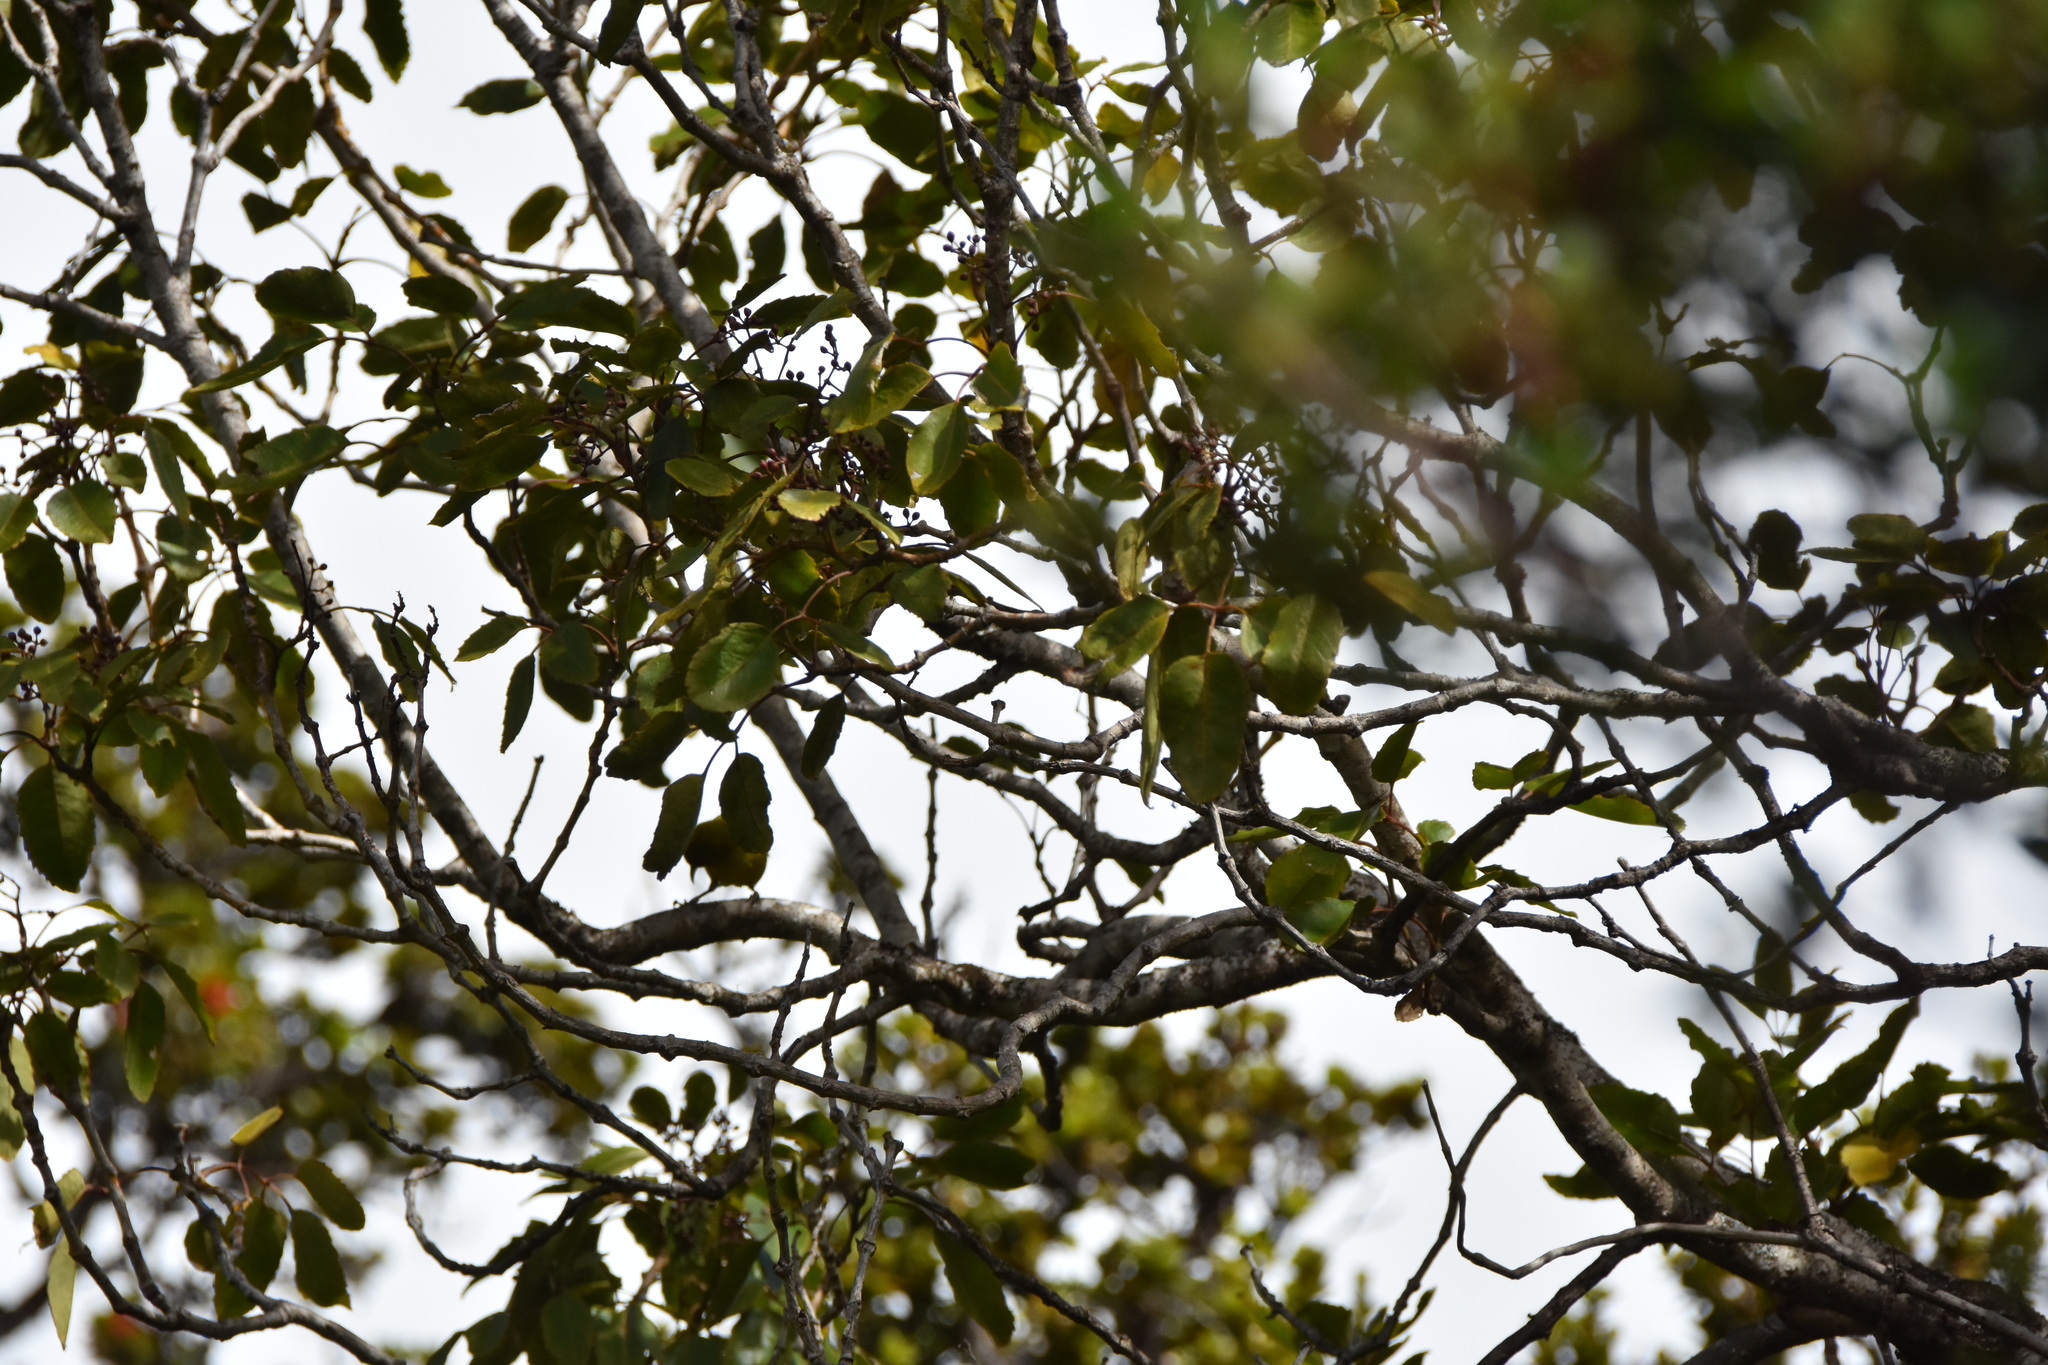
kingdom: Animalia
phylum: Chordata
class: Aves
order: Passeriformes
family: Fringillidae
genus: Chlorodrepanis
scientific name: Chlorodrepanis virens
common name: Hawaii amakihi
